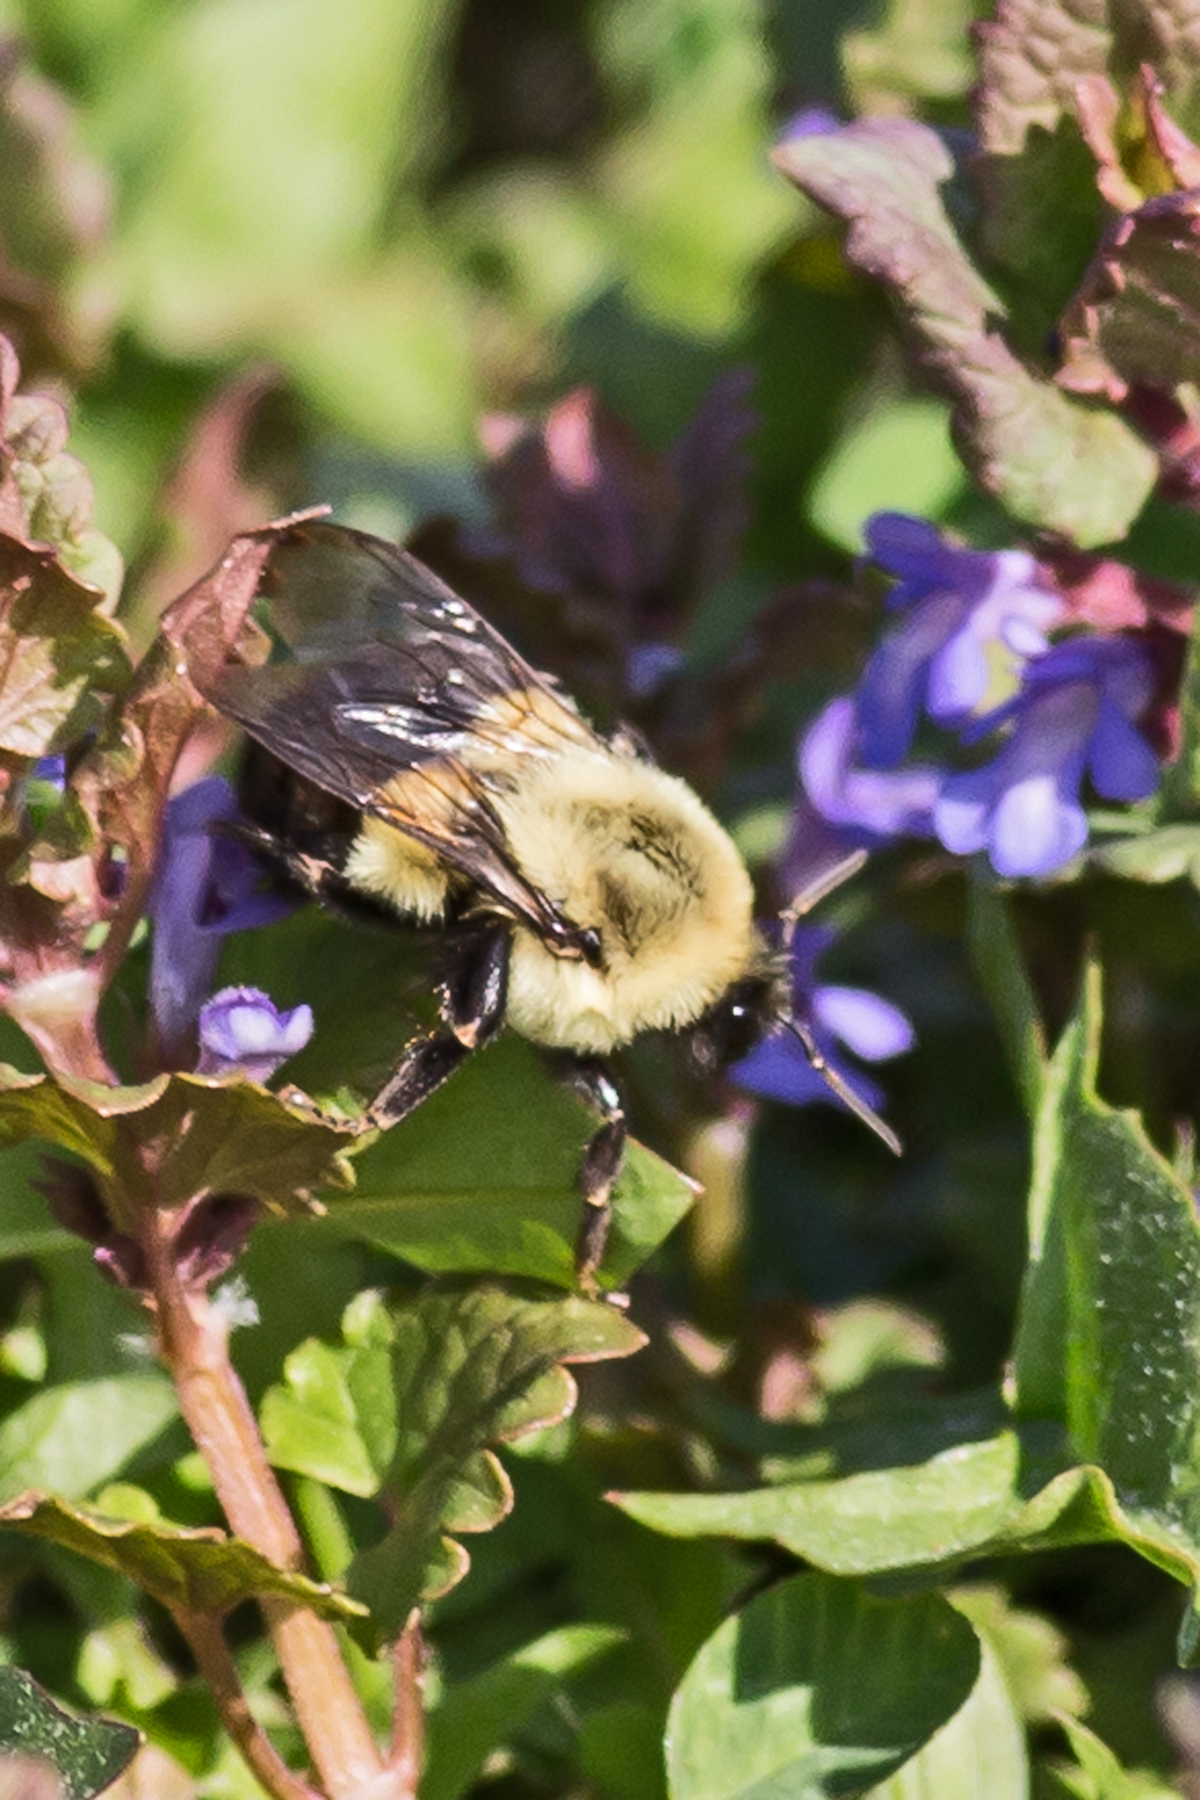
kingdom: Animalia
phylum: Arthropoda
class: Insecta
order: Hymenoptera
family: Apidae
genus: Bombus
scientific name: Bombus impatiens
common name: Common eastern bumble bee
